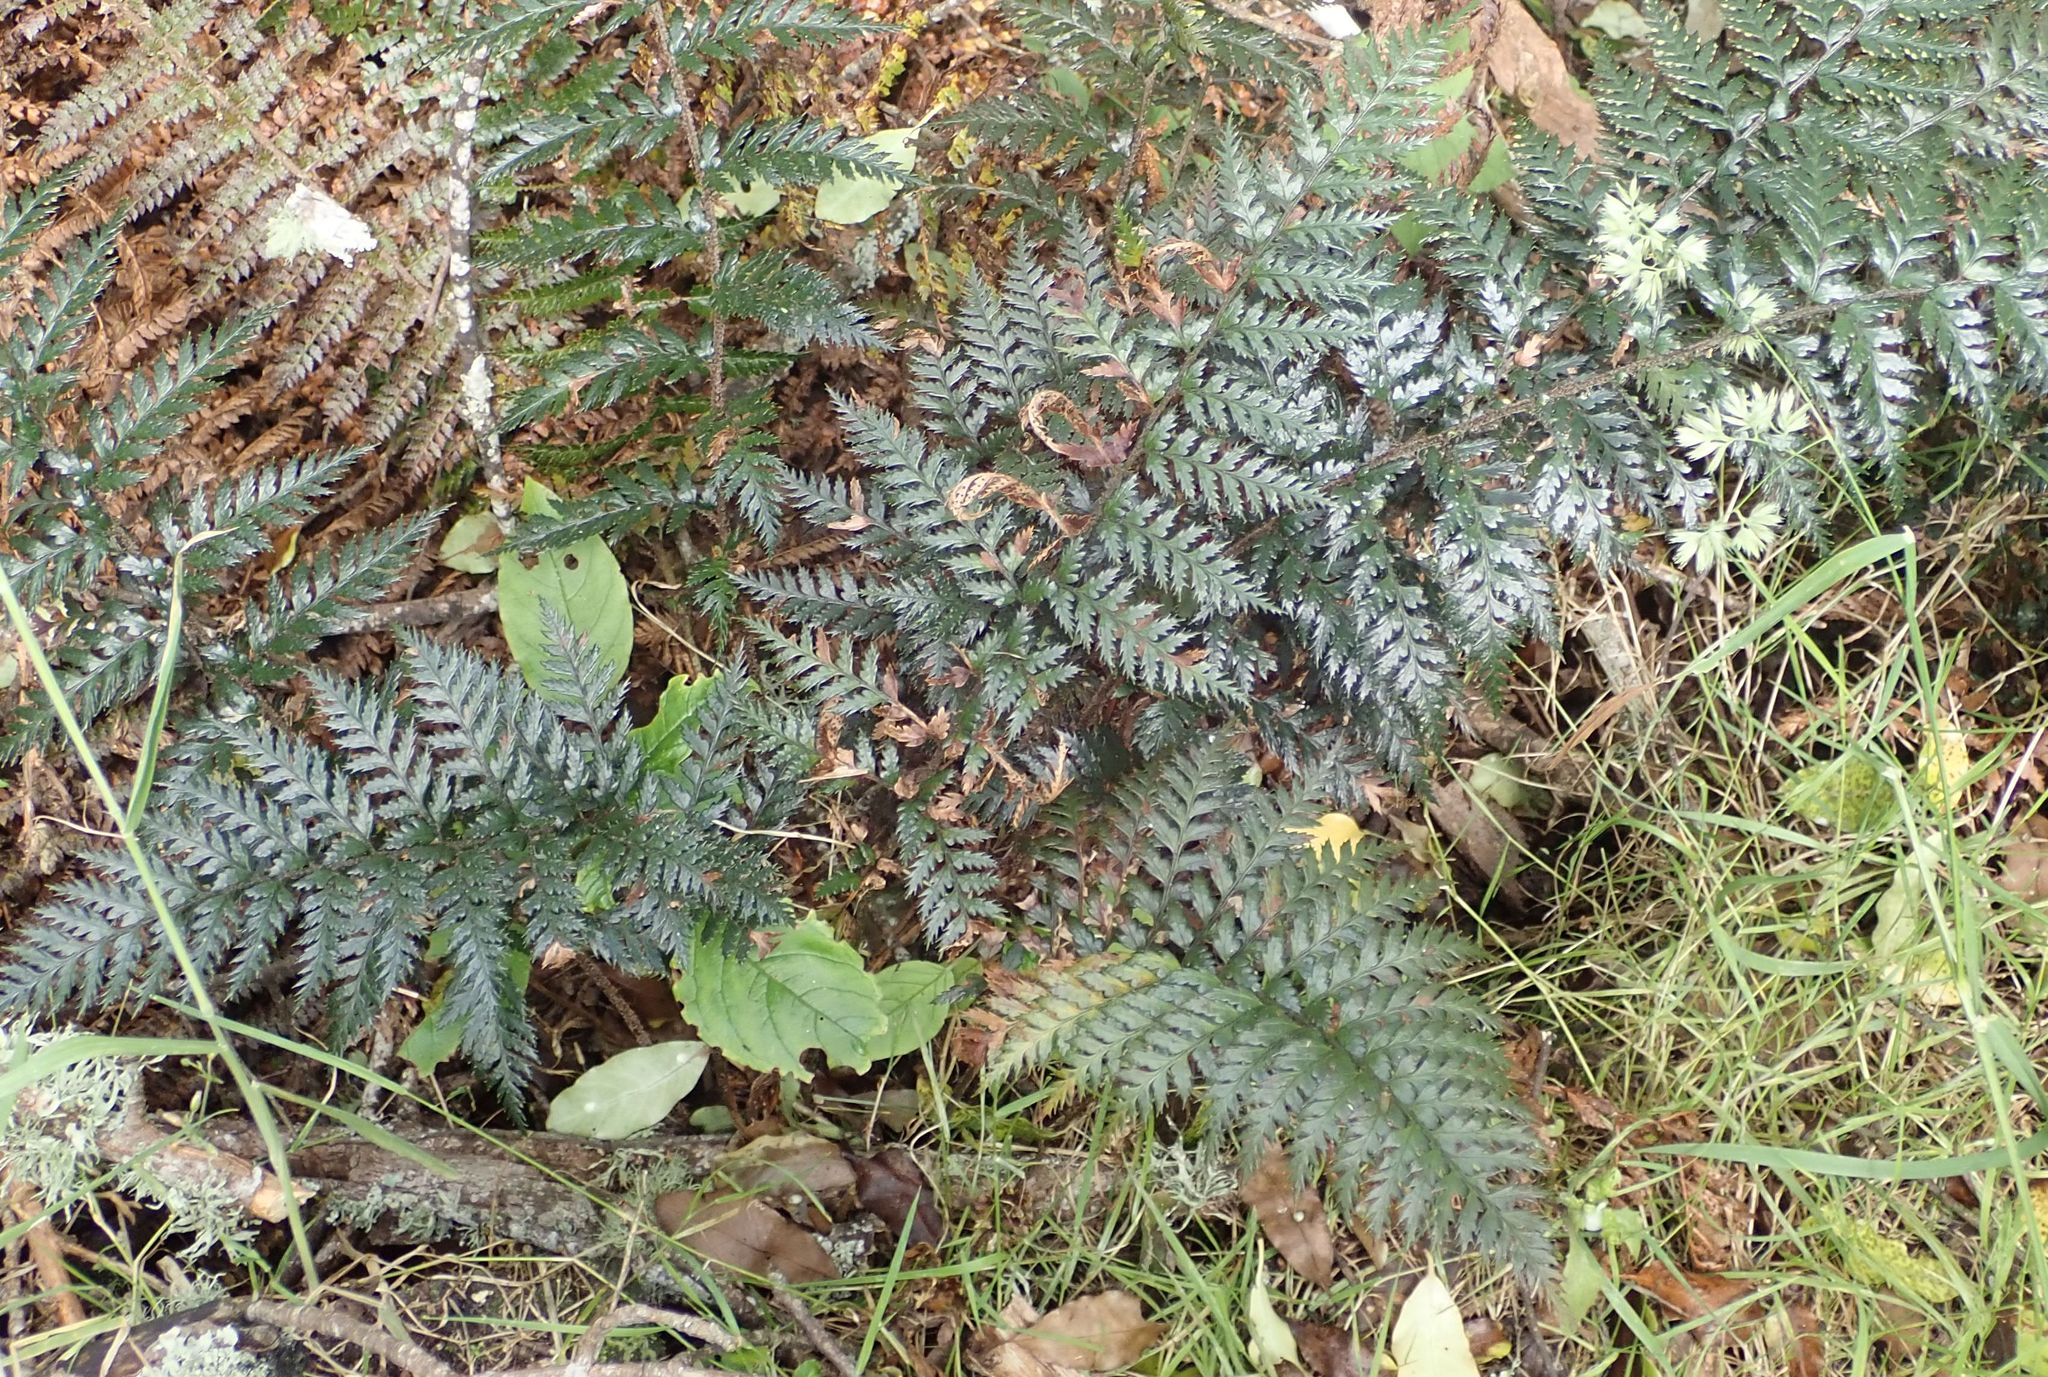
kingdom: Plantae
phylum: Tracheophyta
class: Polypodiopsida
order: Polypodiales
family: Dryopteridaceae
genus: Polystichum
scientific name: Polystichum neozelandicum
